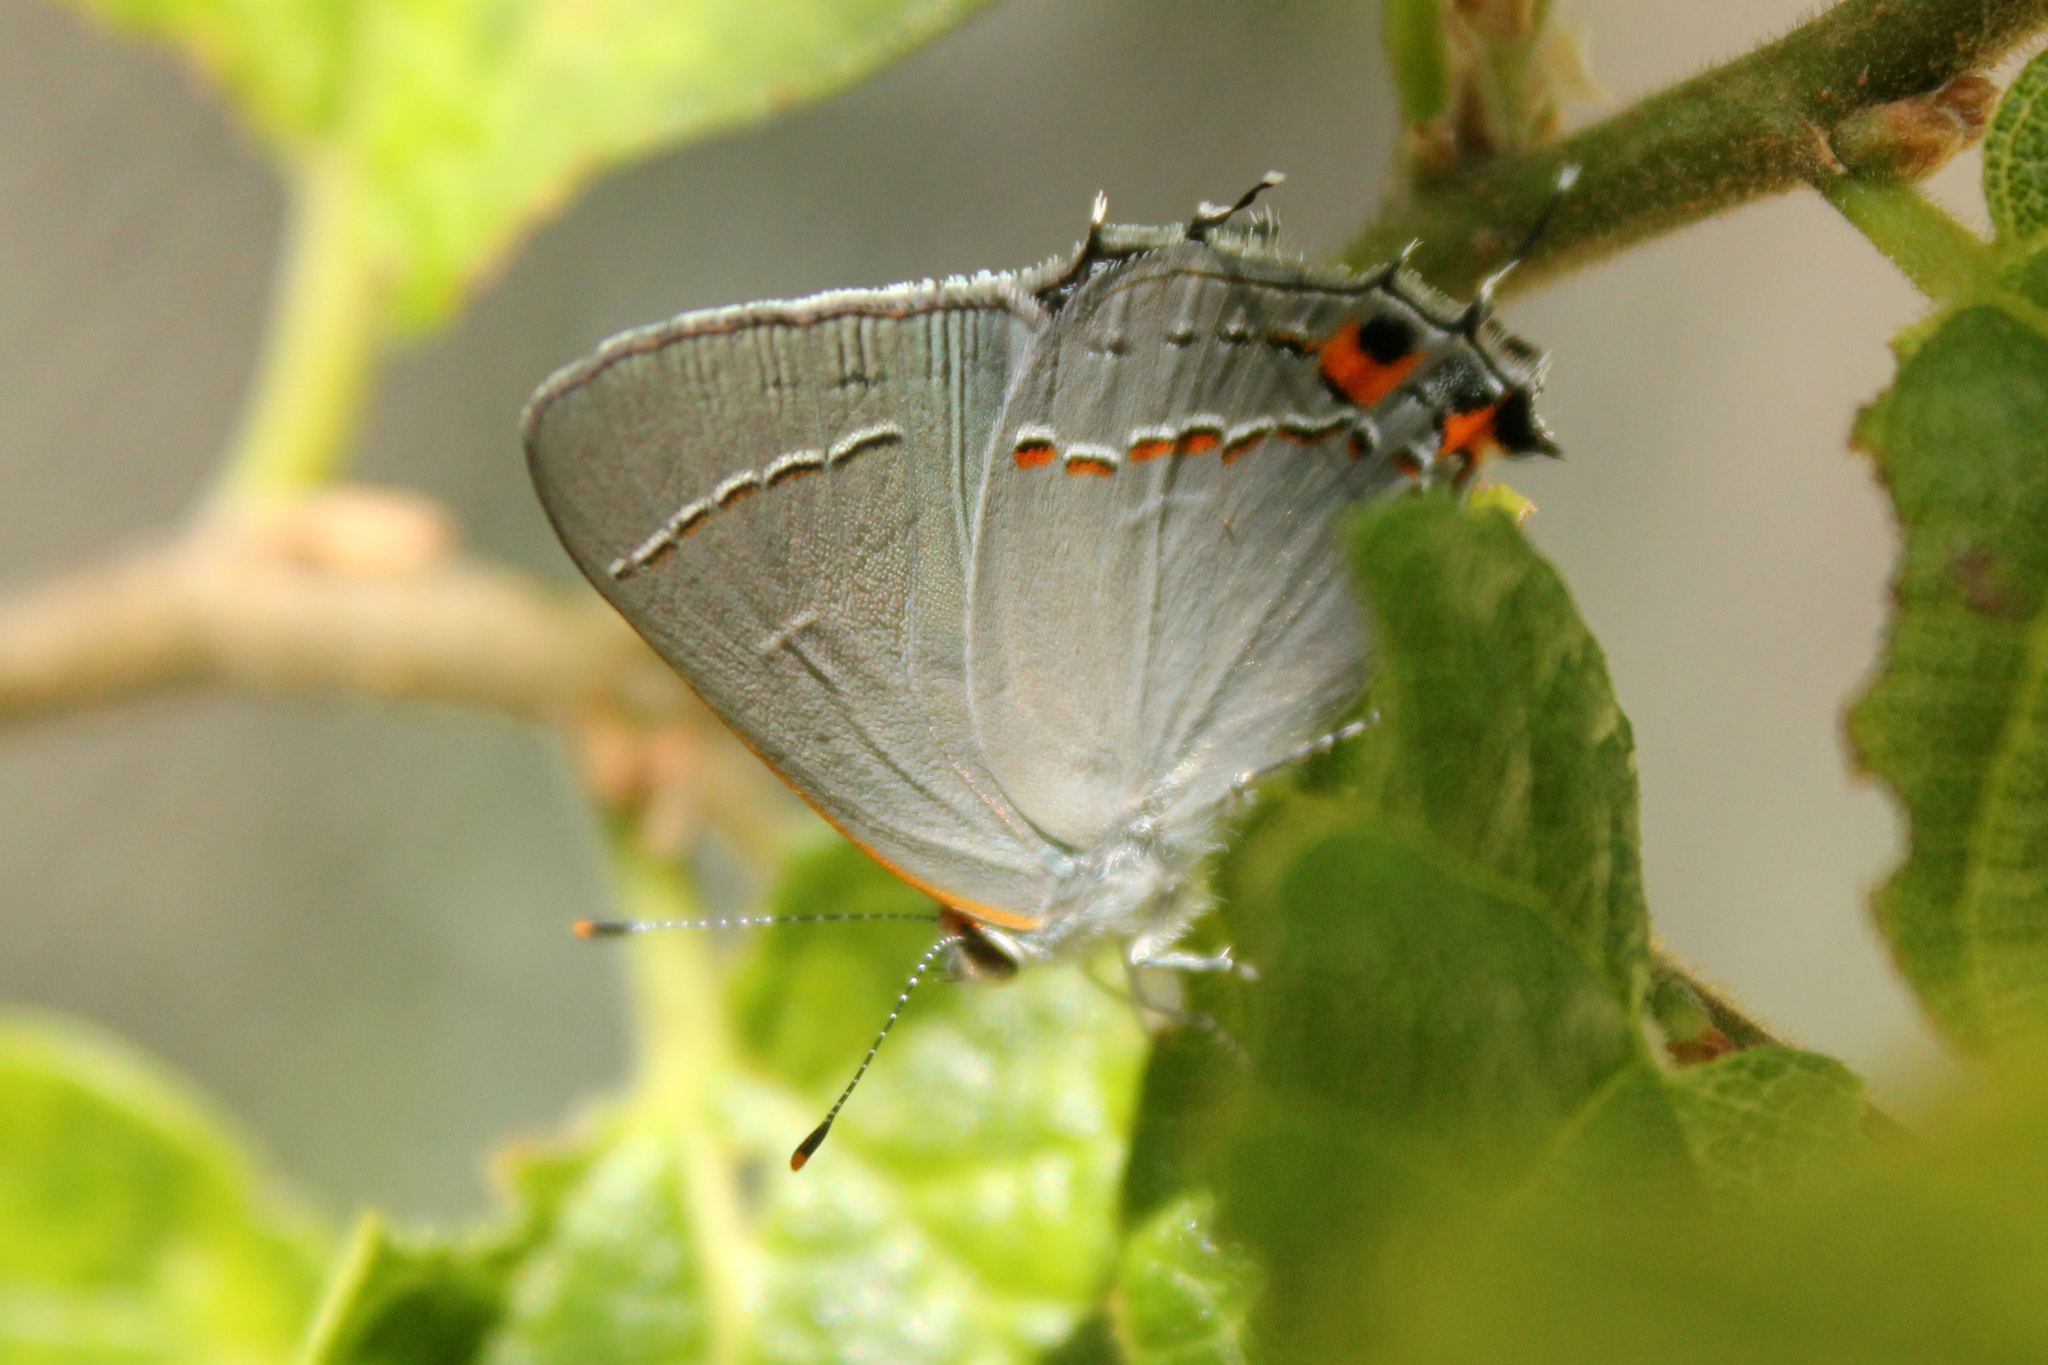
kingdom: Animalia
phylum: Arthropoda
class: Insecta
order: Lepidoptera
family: Lycaenidae
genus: Strymon
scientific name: Strymon melinus
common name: Gray hairstreak
